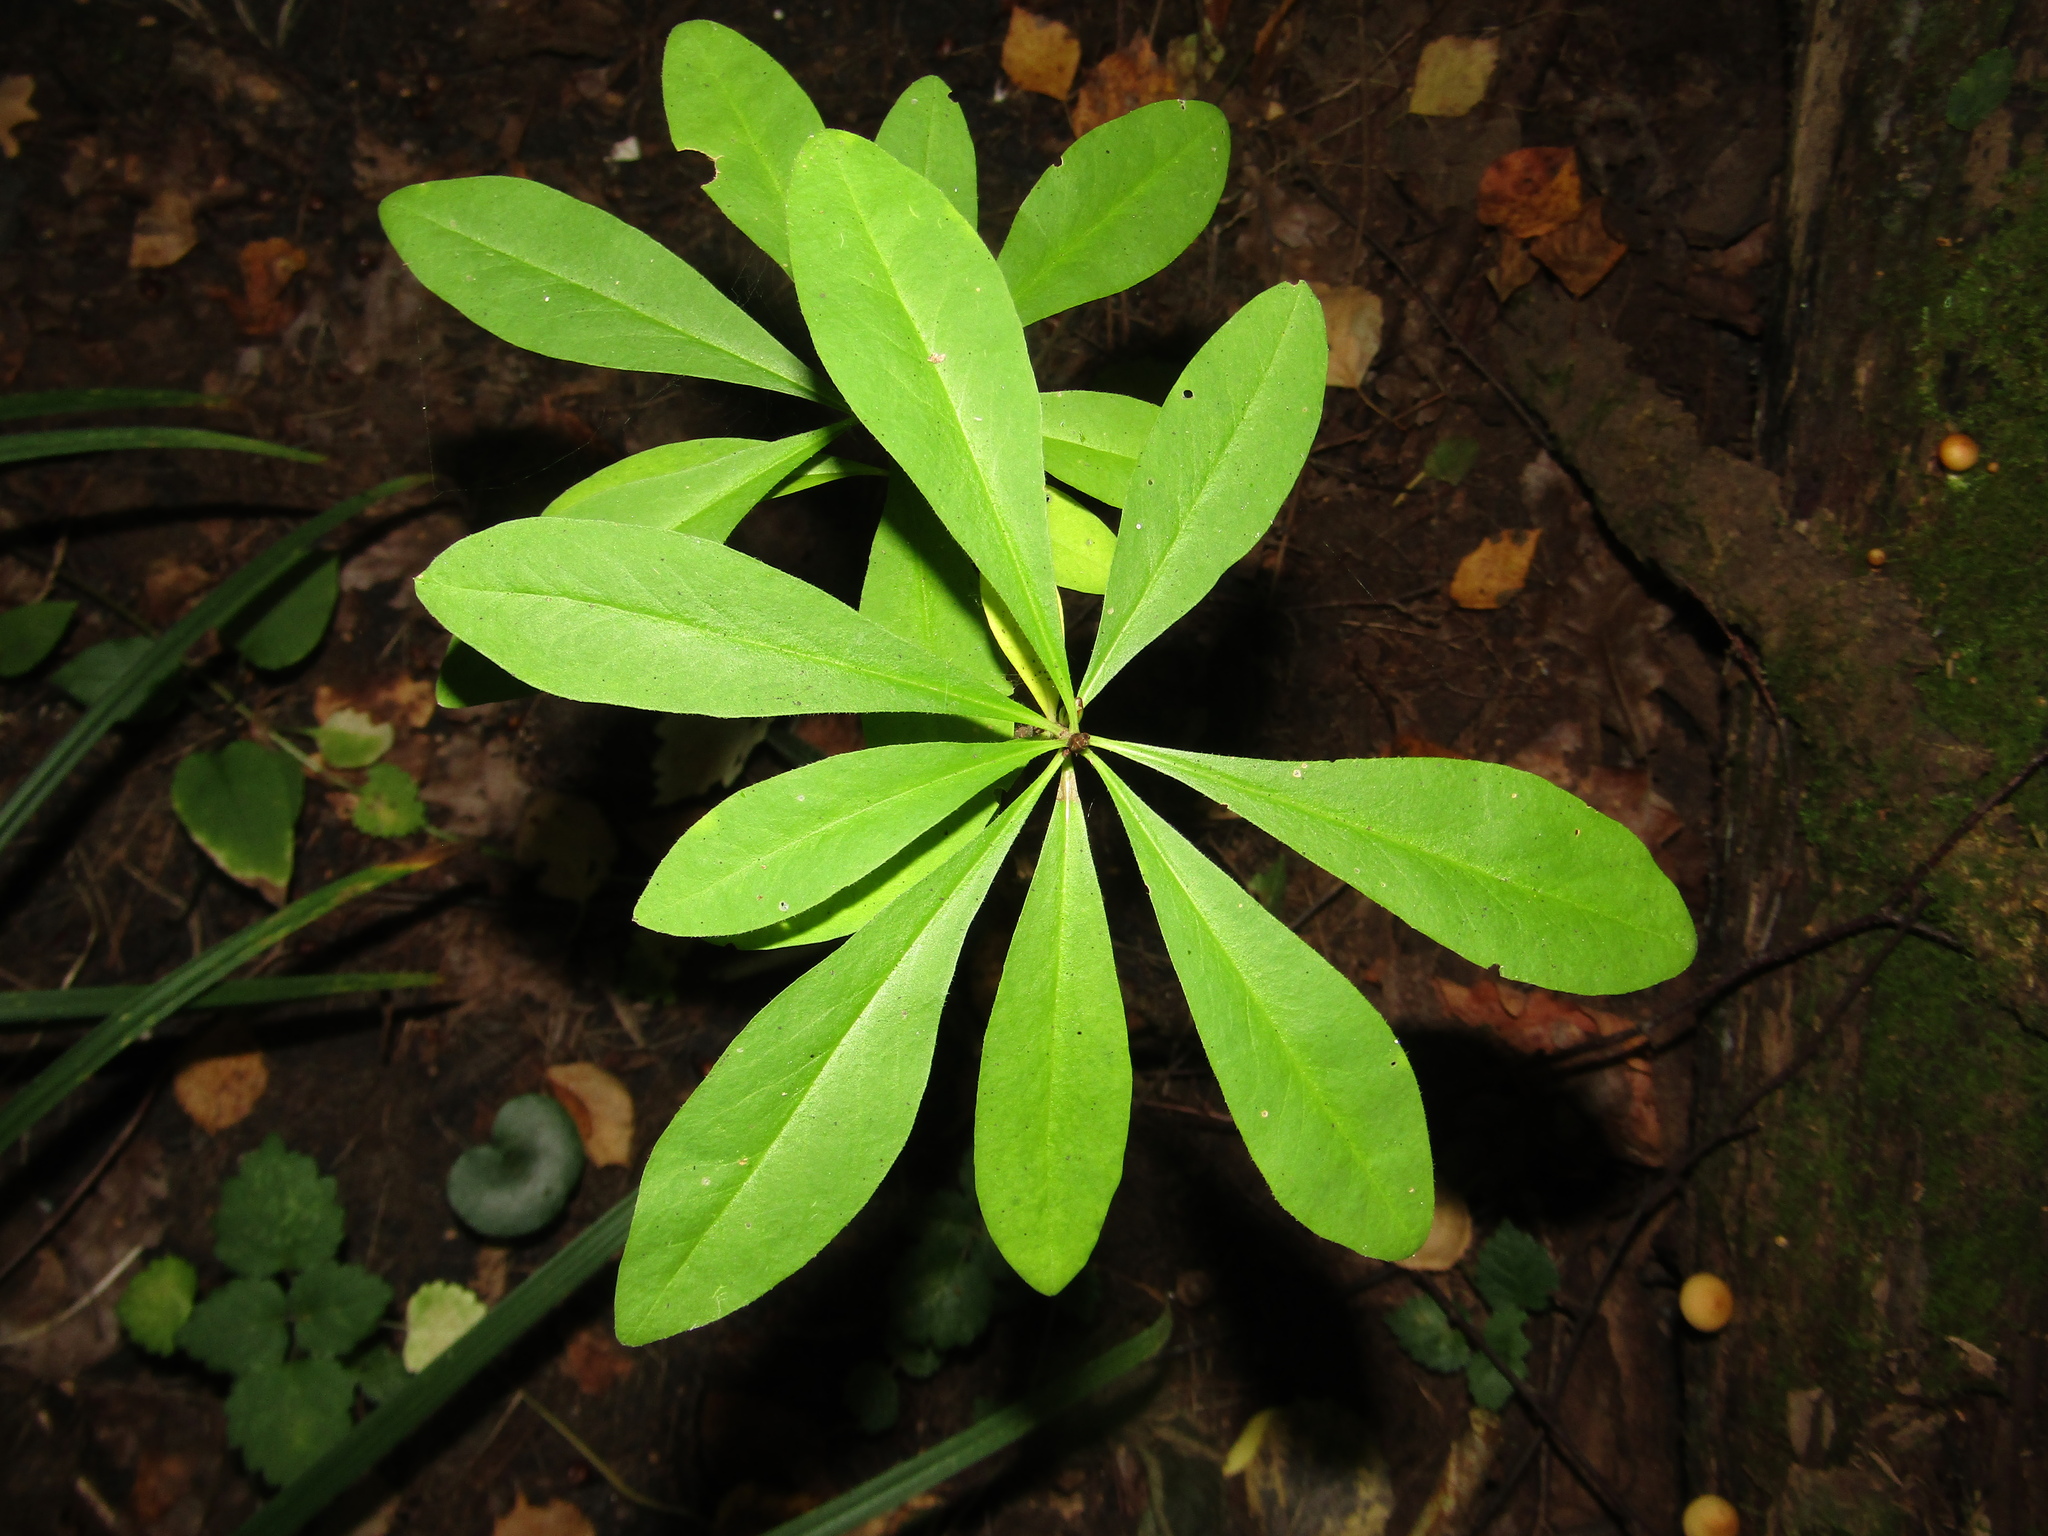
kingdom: Plantae
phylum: Tracheophyta
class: Magnoliopsida
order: Malvales
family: Thymelaeaceae
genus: Daphne
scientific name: Daphne mezereum
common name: Mezereon
